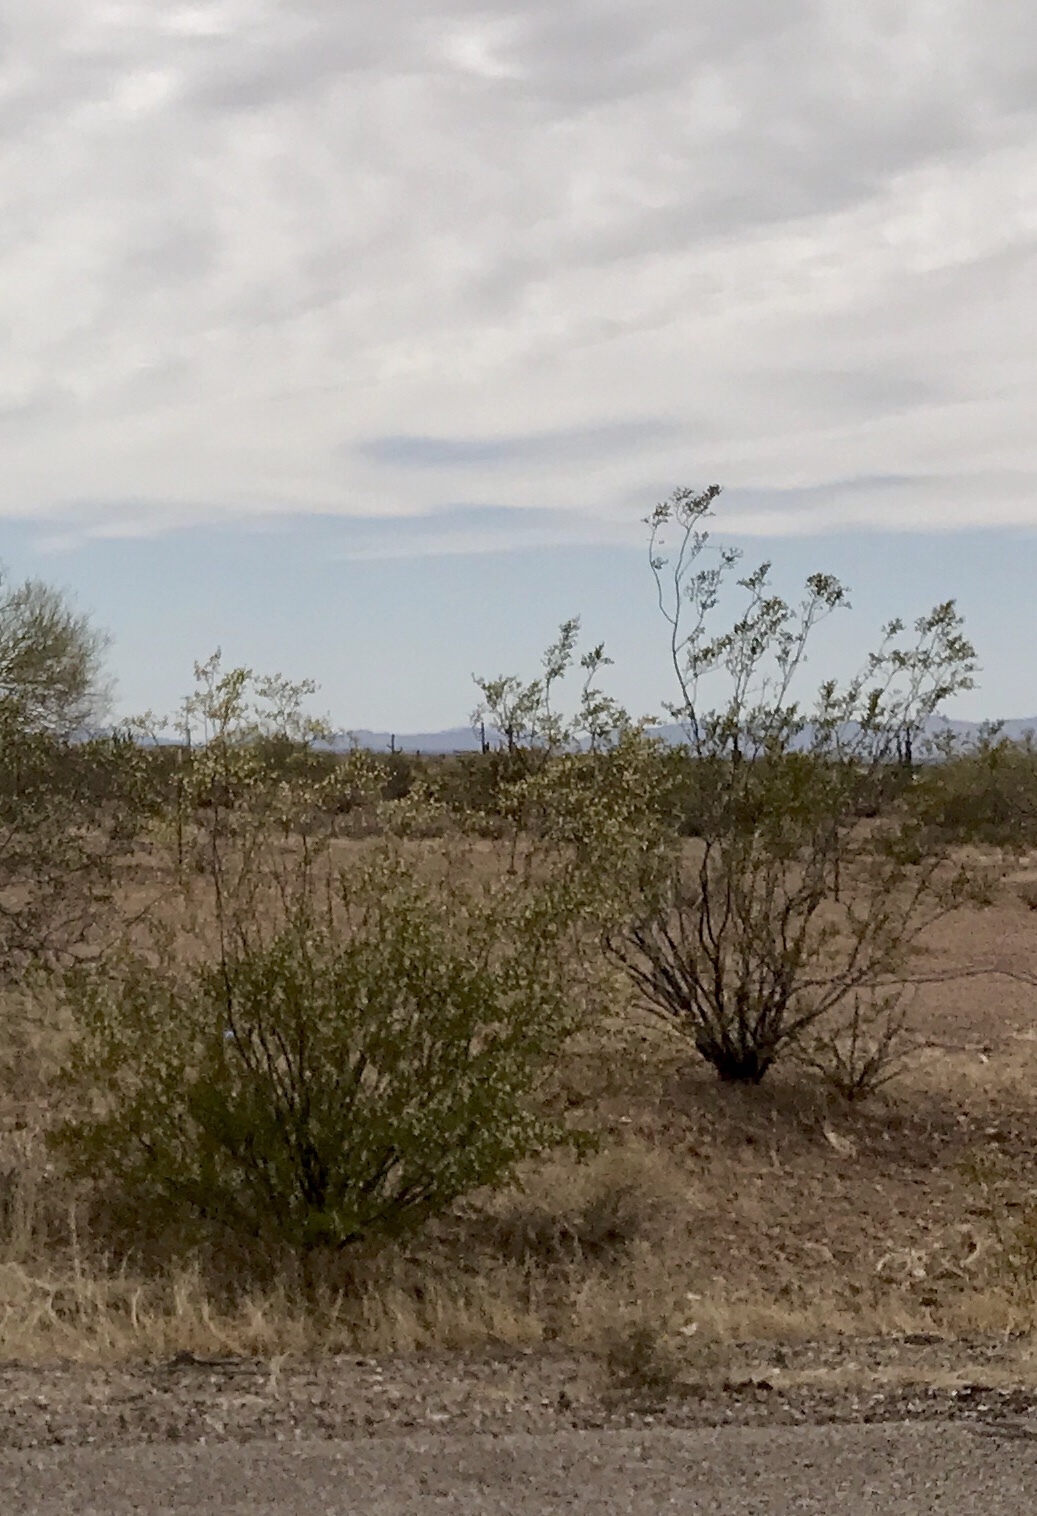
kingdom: Plantae
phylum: Tracheophyta
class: Magnoliopsida
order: Zygophyllales
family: Zygophyllaceae
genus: Larrea
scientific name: Larrea tridentata
